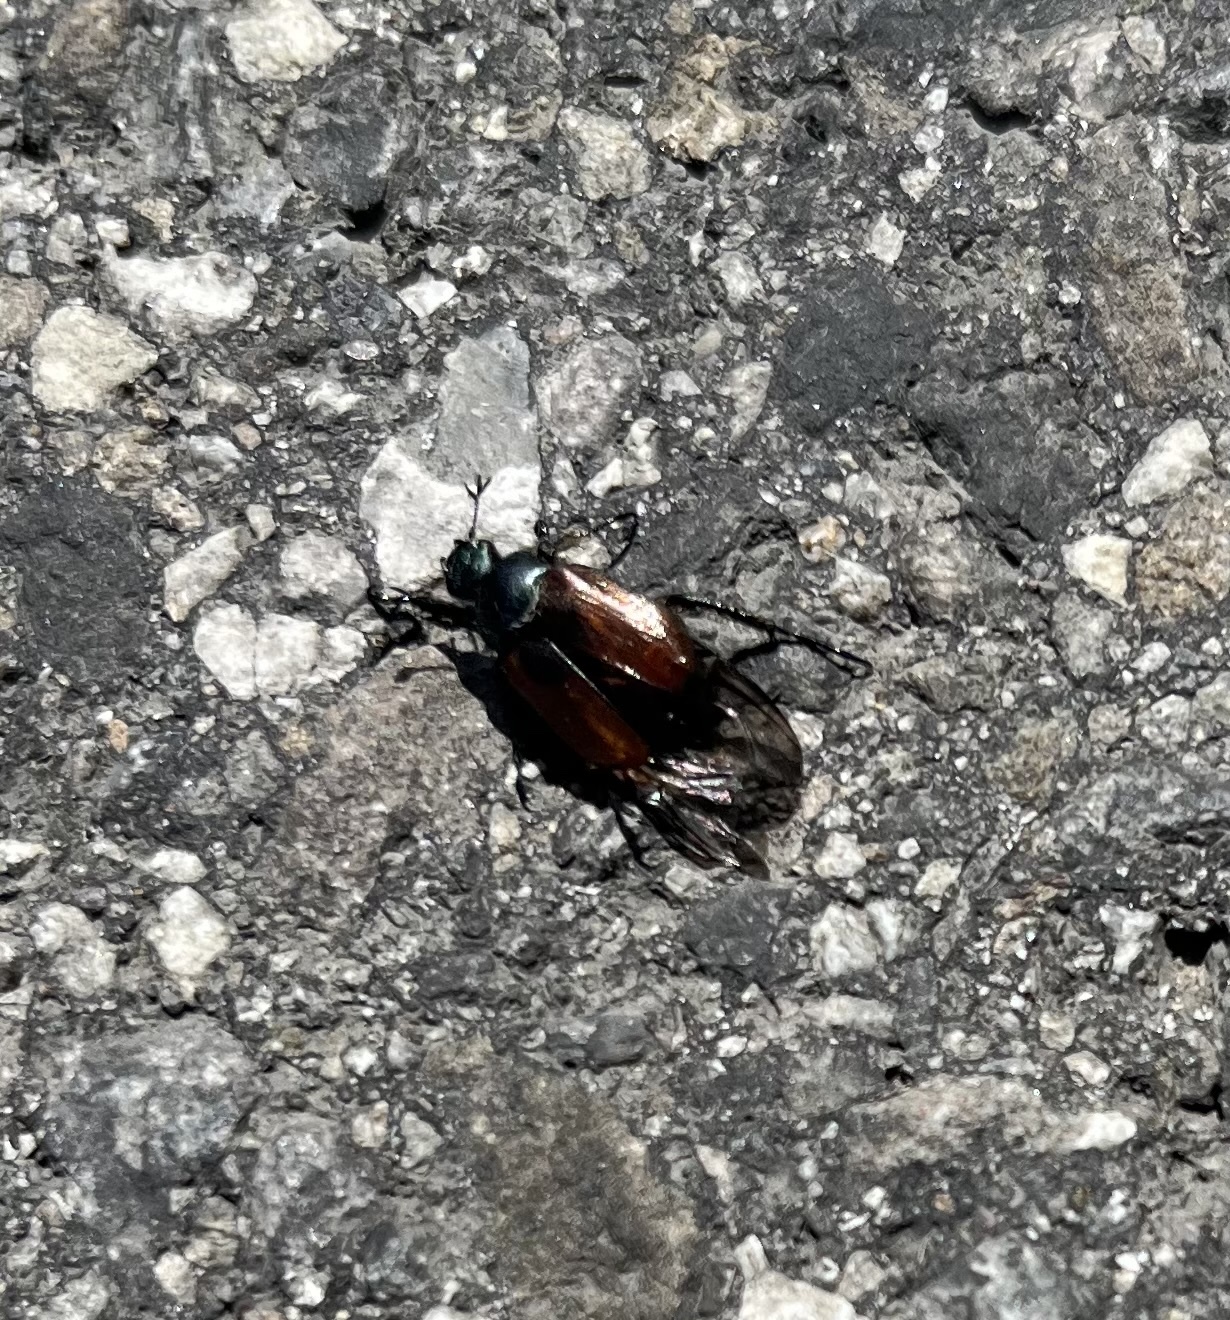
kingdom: Animalia
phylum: Arthropoda
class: Insecta
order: Lepidoptera
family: Nymphalidae
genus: Maniola
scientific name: Maniola jurtina
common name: Meadow brown
